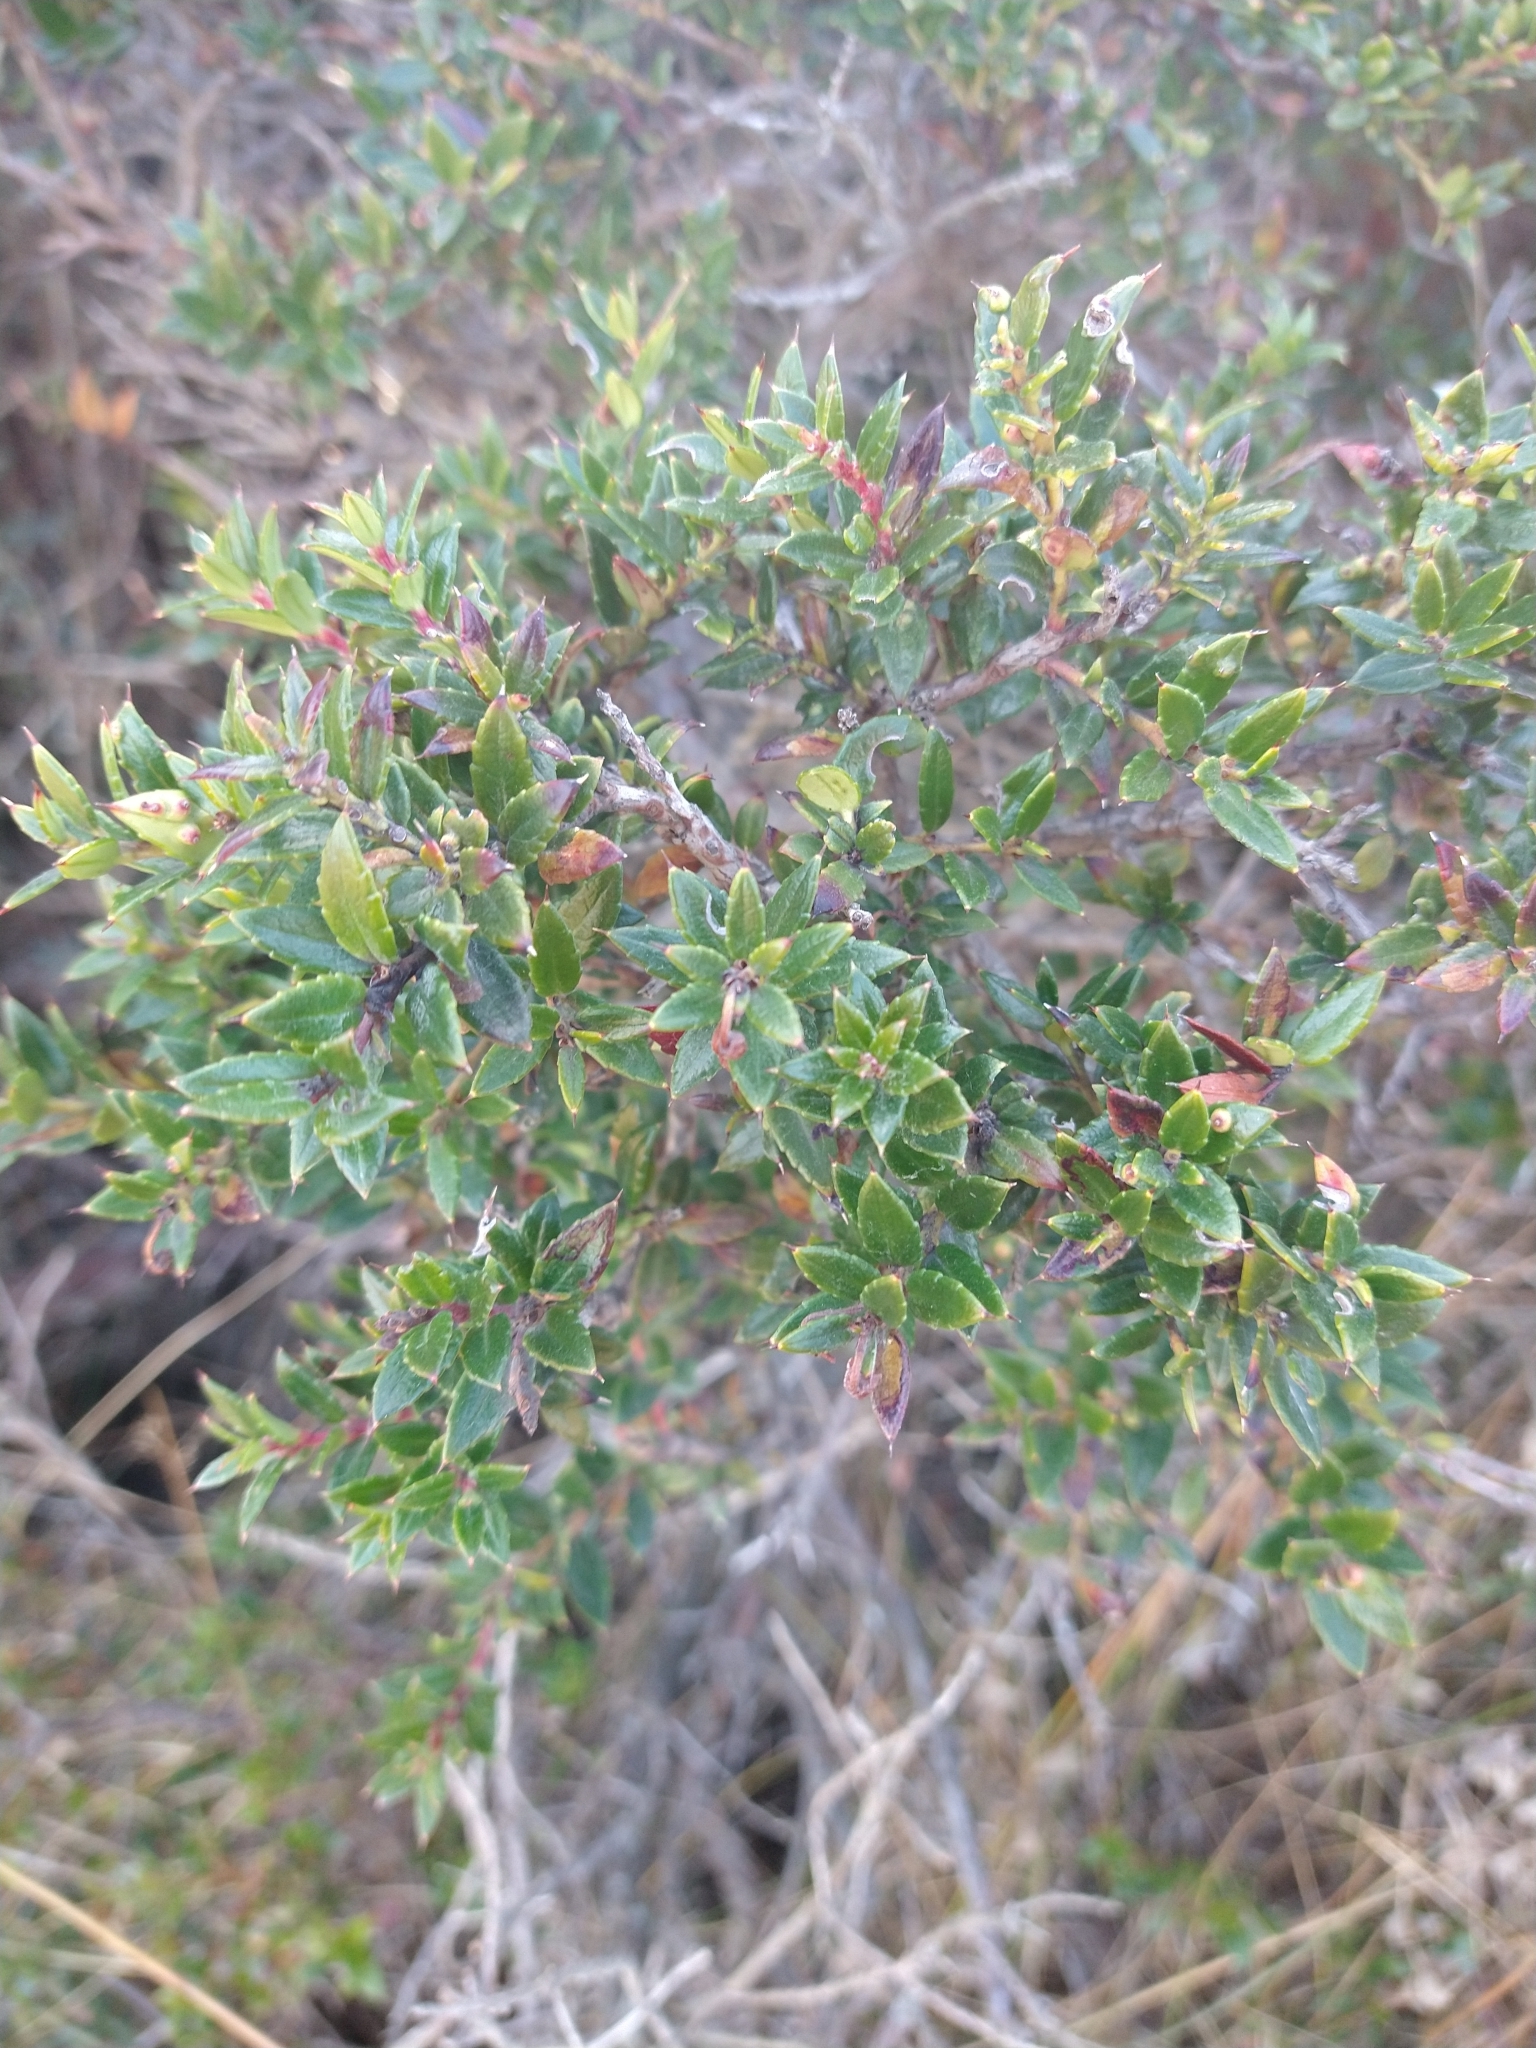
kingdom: Plantae
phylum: Tracheophyta
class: Magnoliopsida
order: Ericales
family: Ericaceae
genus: Gaultheria
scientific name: Gaultheria mucronata
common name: Prickly heath
